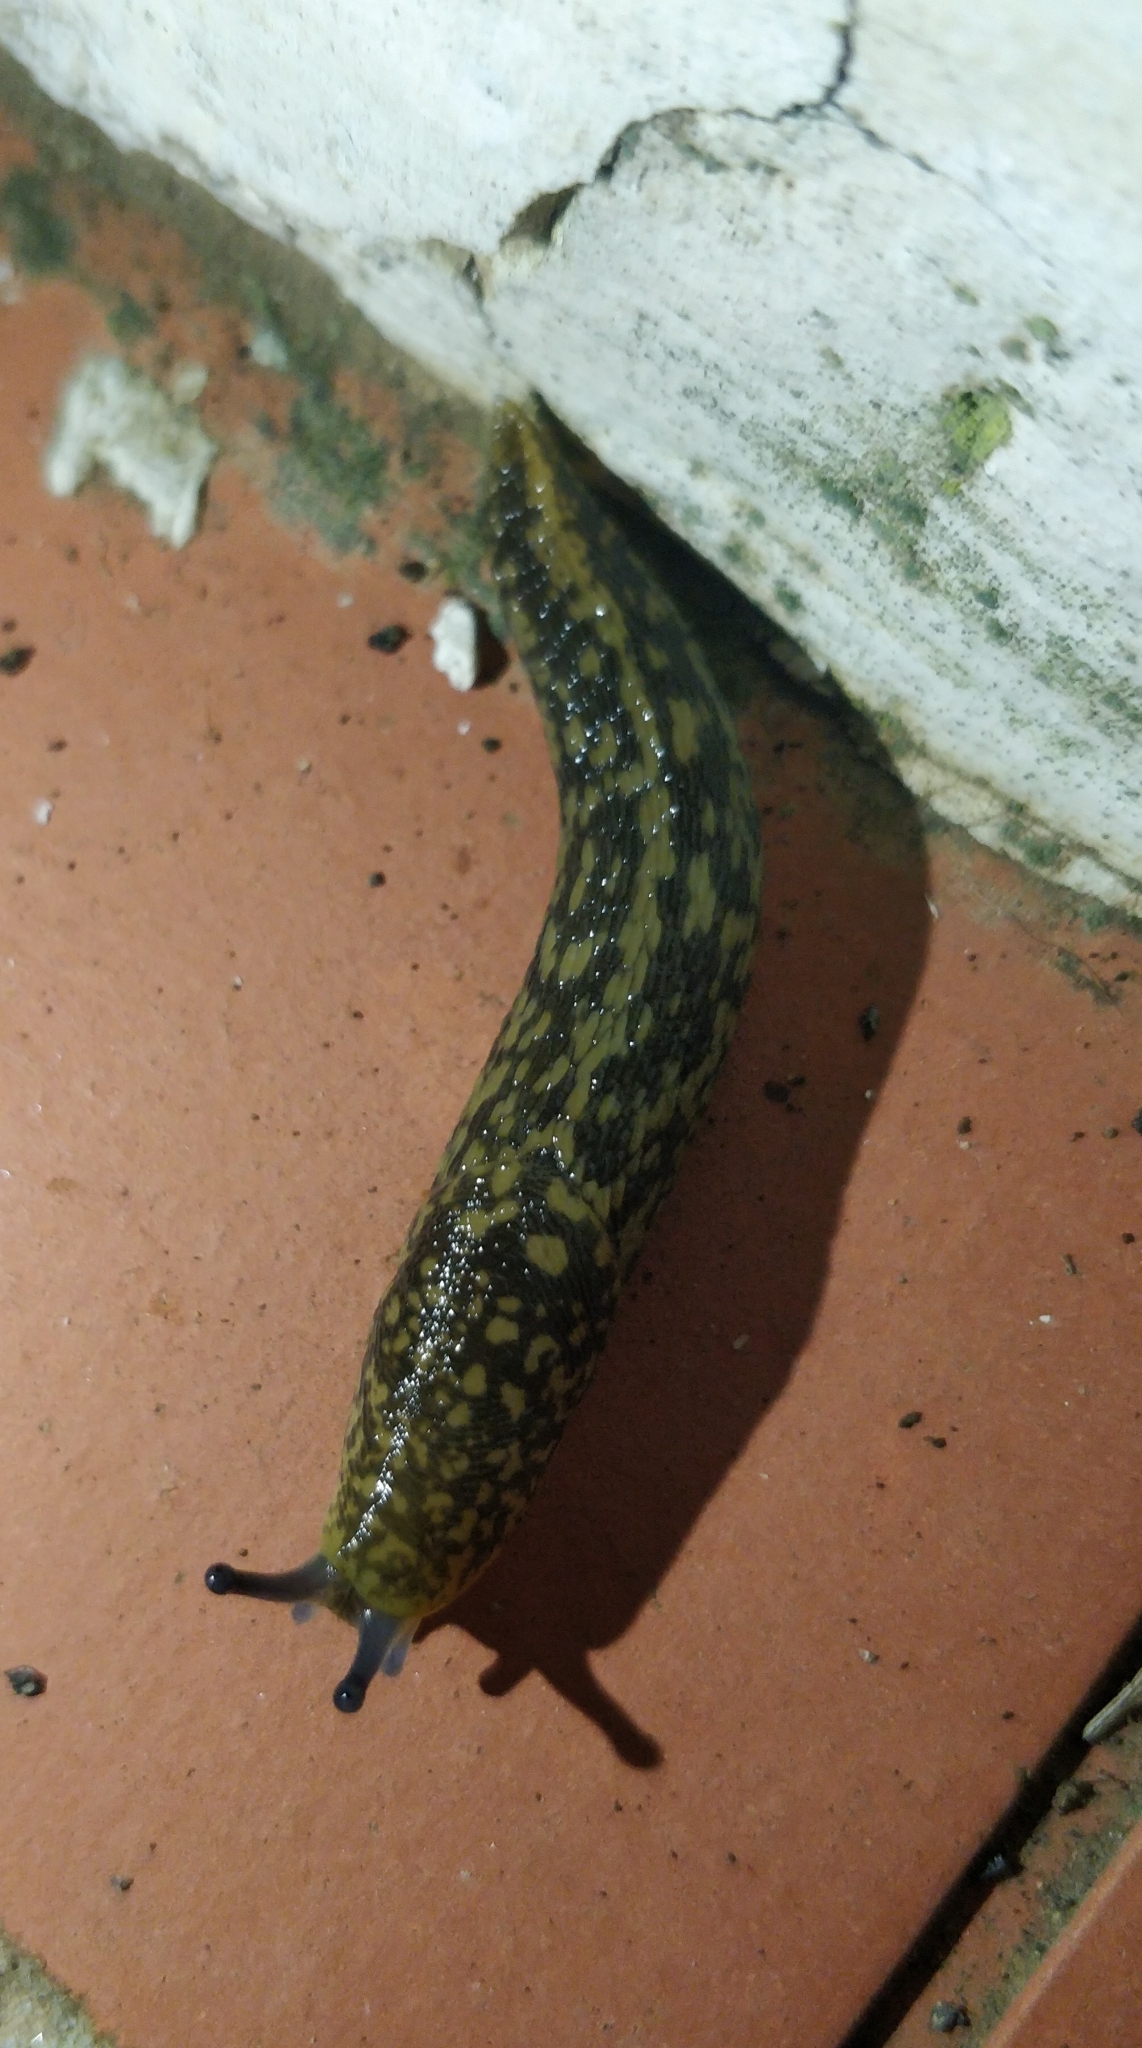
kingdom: Animalia
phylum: Mollusca
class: Gastropoda
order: Stylommatophora
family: Limacidae
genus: Limacus
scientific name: Limacus flavus
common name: Yellow gardenslug
